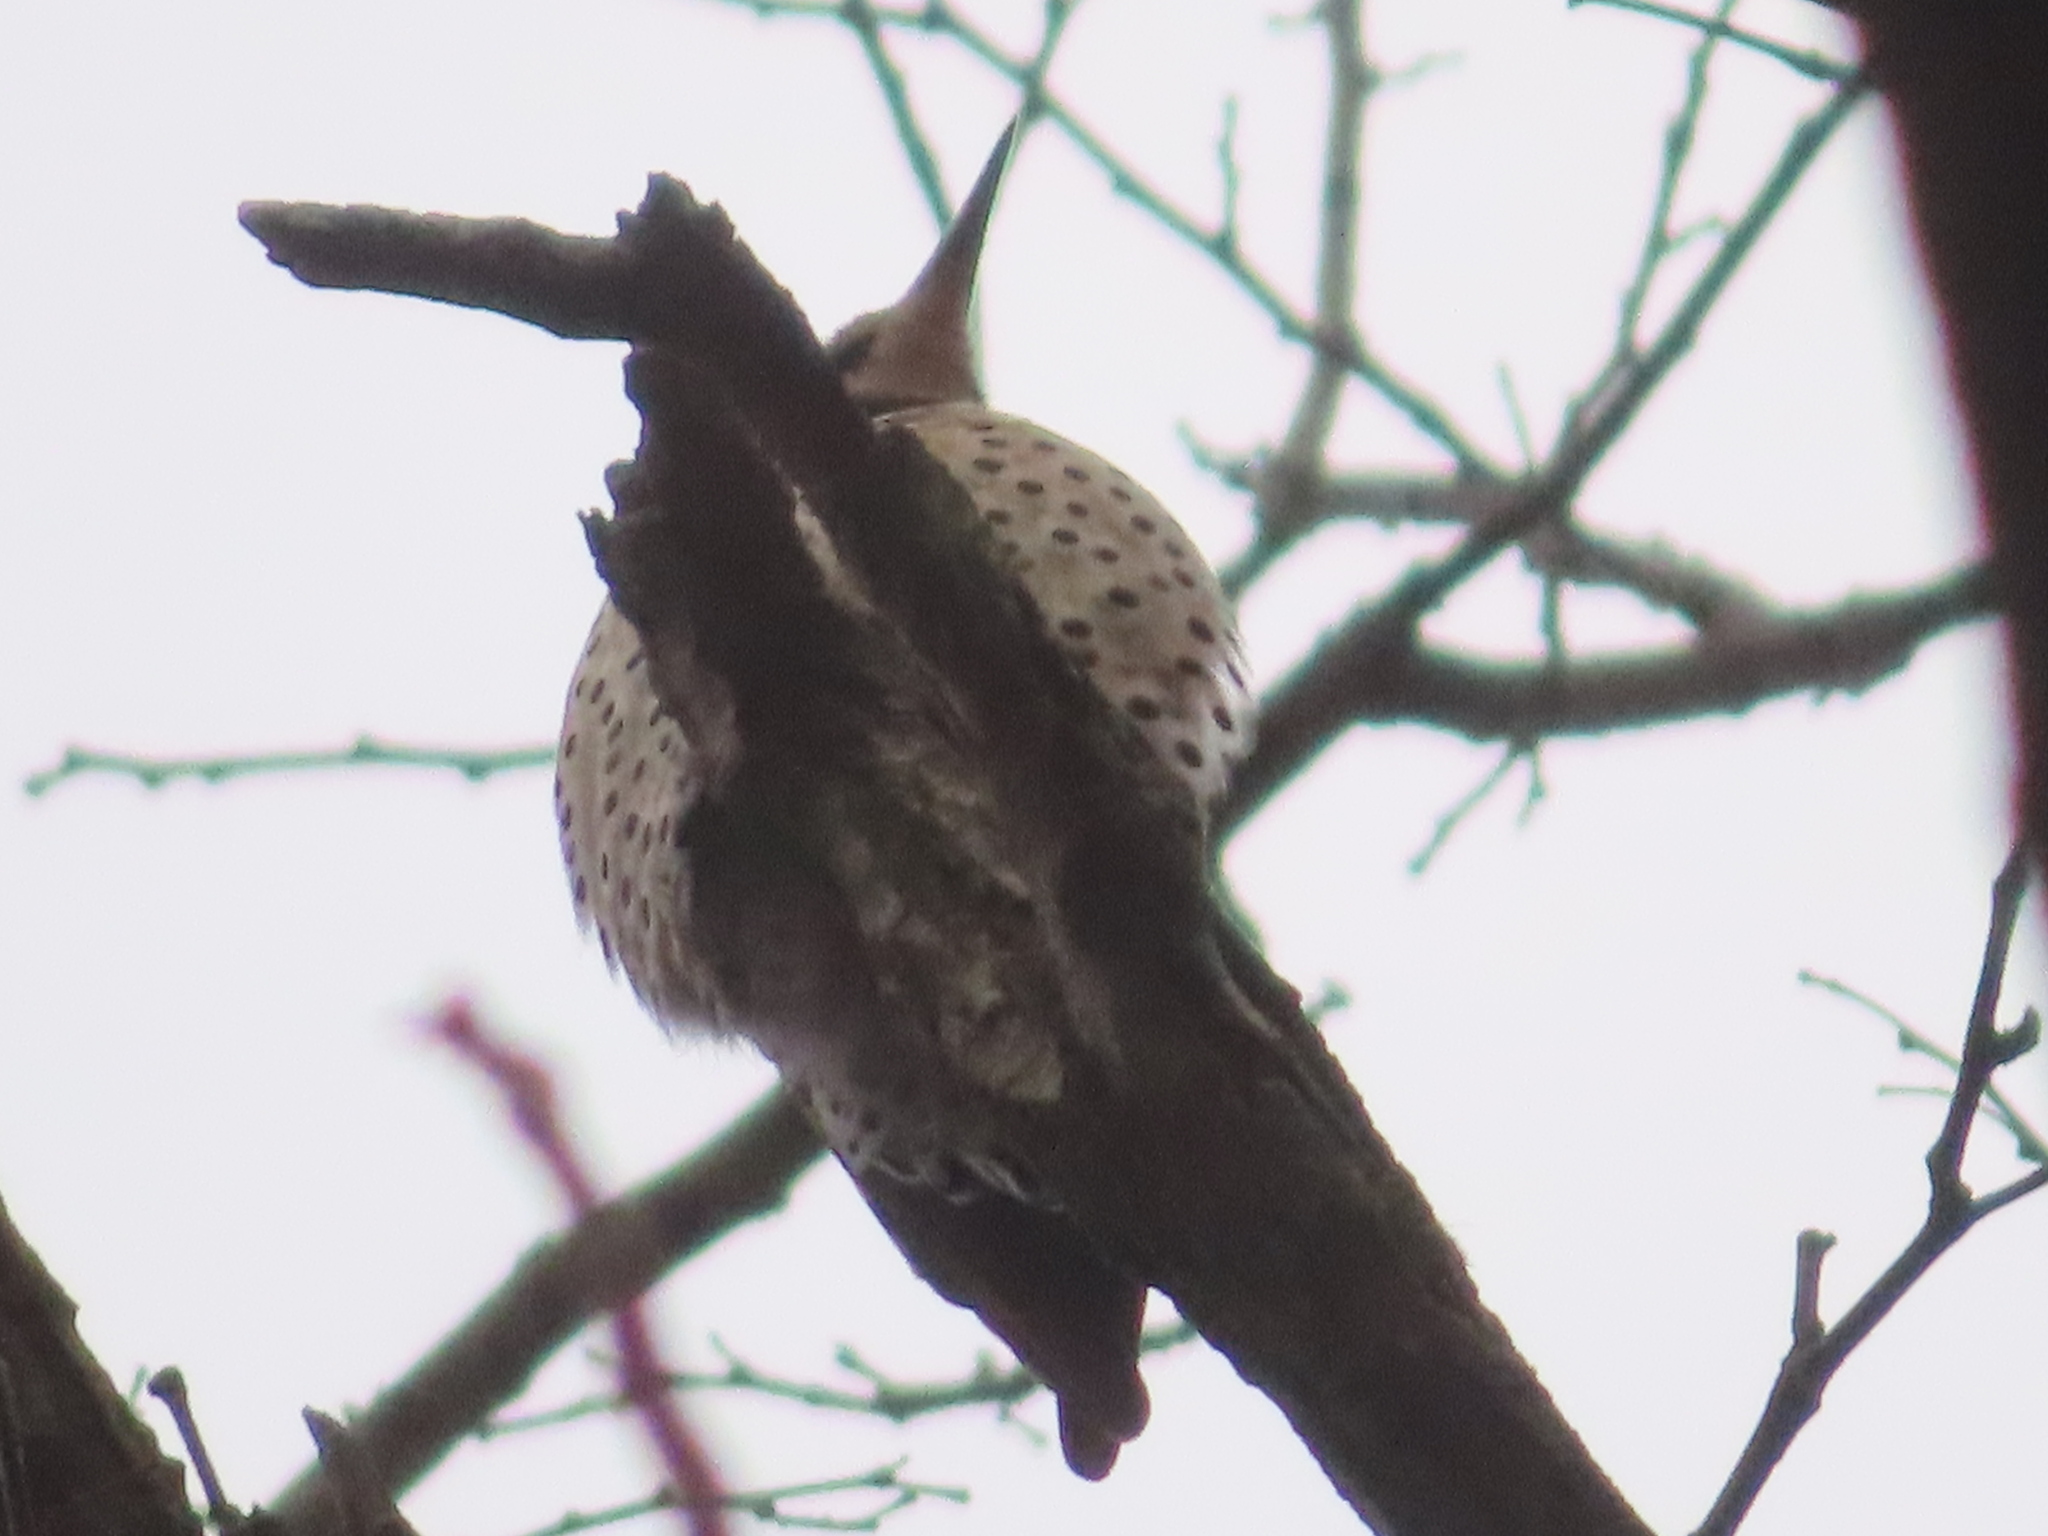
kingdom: Animalia
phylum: Chordata
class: Aves
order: Piciformes
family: Picidae
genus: Colaptes
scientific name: Colaptes auratus
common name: Northern flicker
